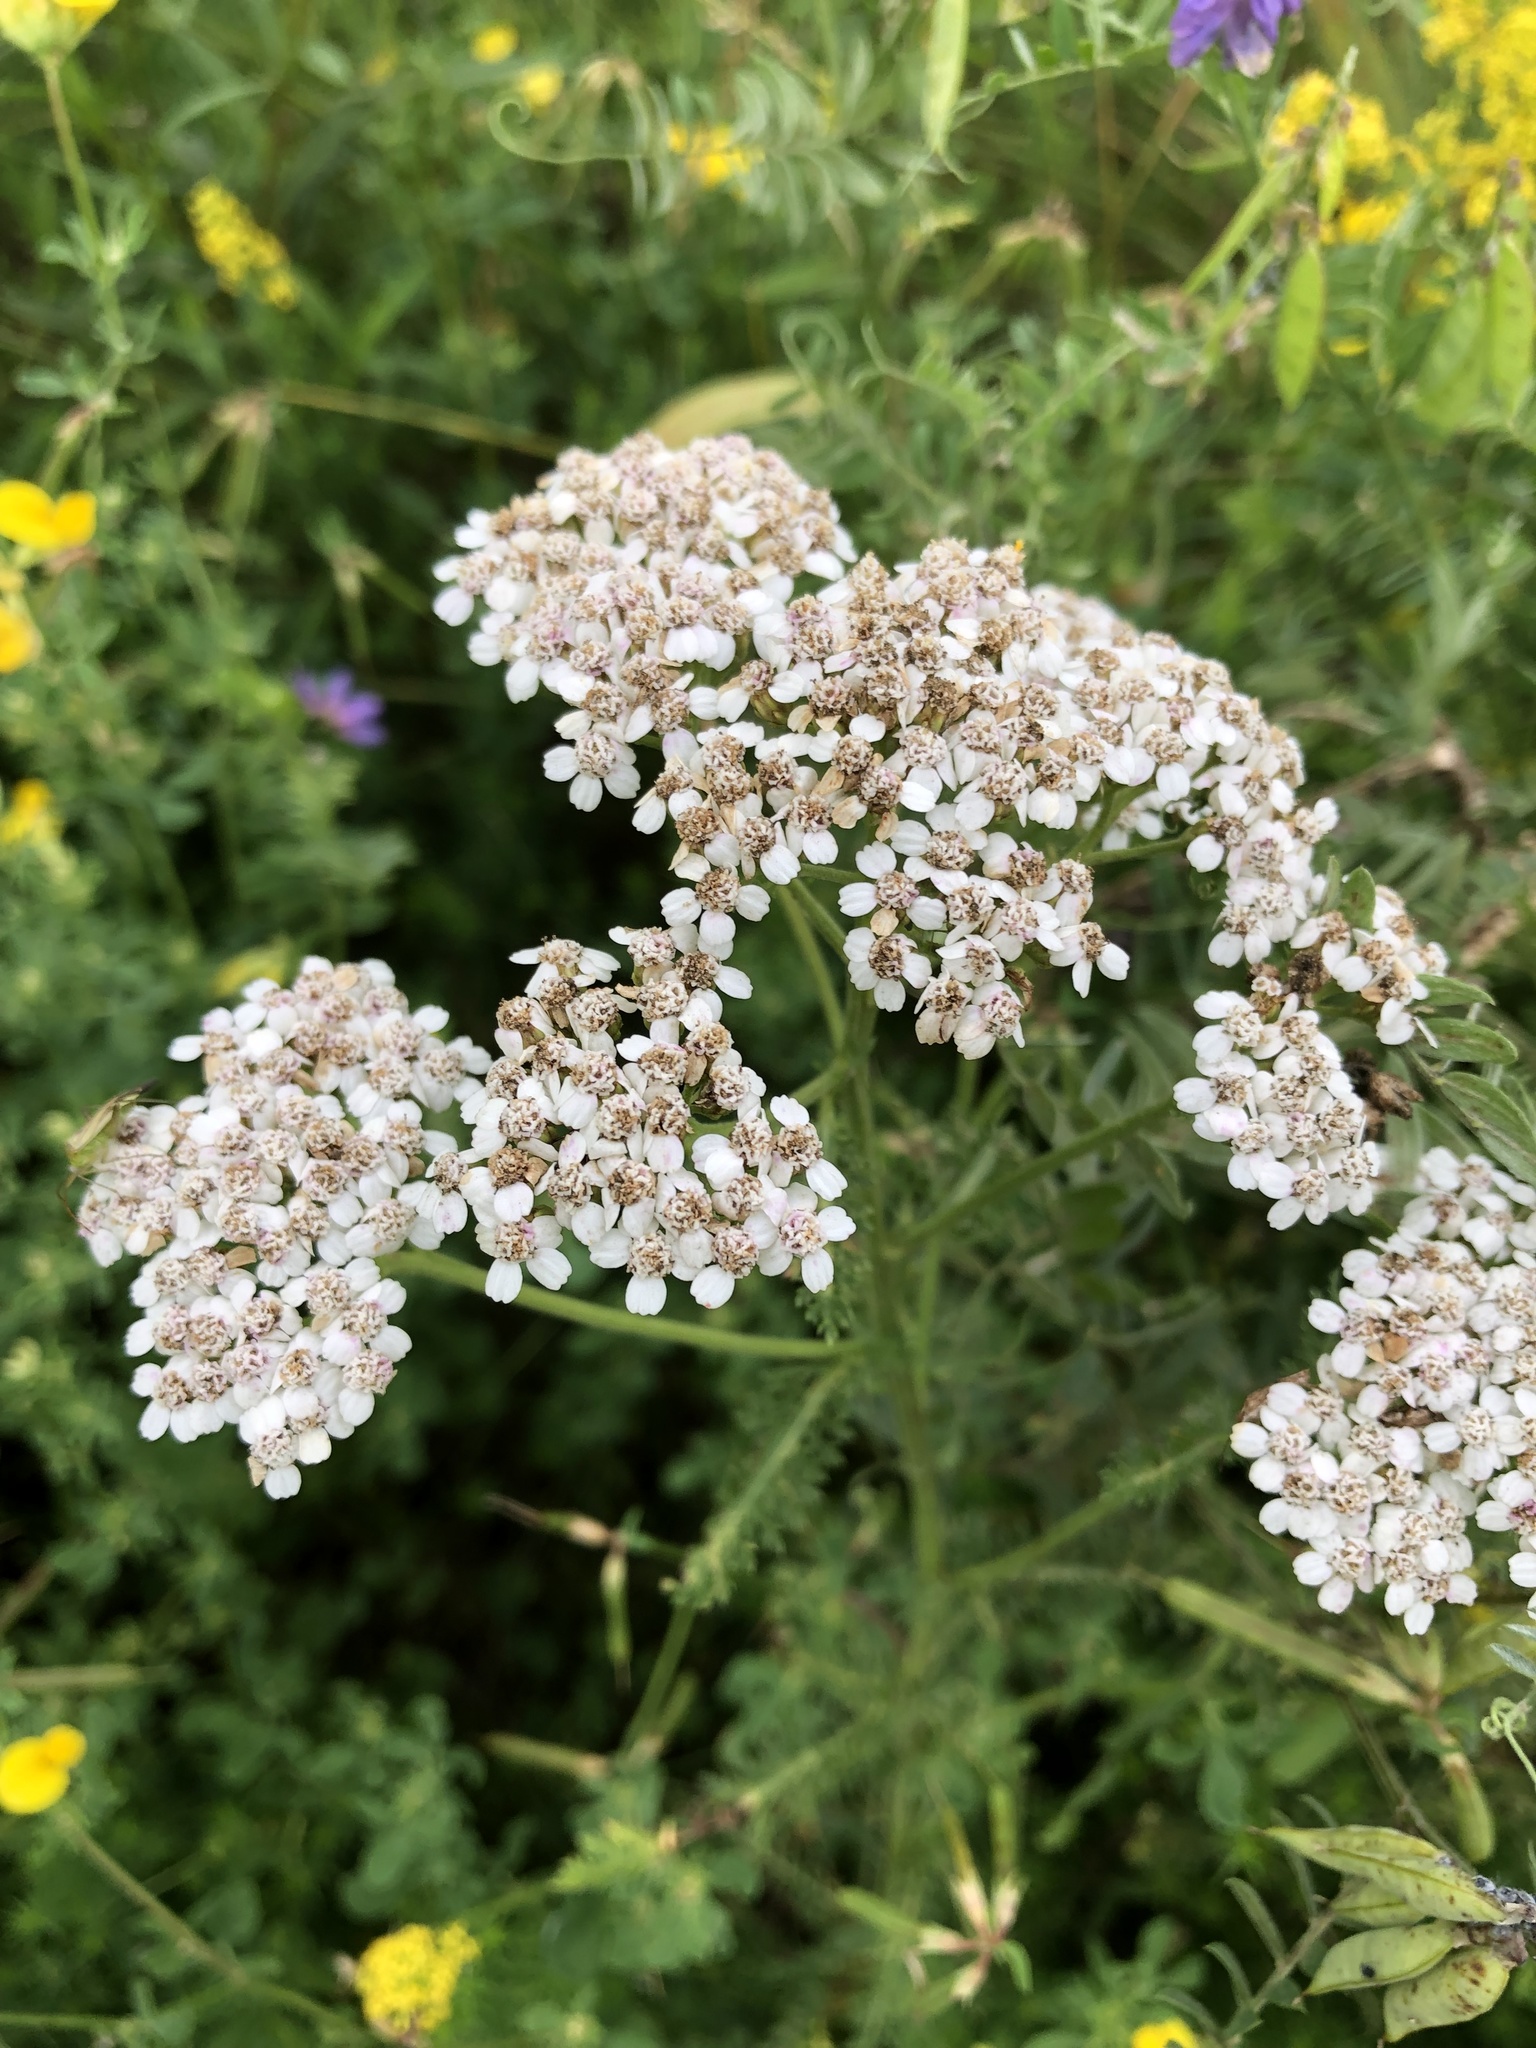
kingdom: Plantae
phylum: Tracheophyta
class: Magnoliopsida
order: Asterales
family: Asteraceae
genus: Achillea
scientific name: Achillea millefolium
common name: Yarrow
